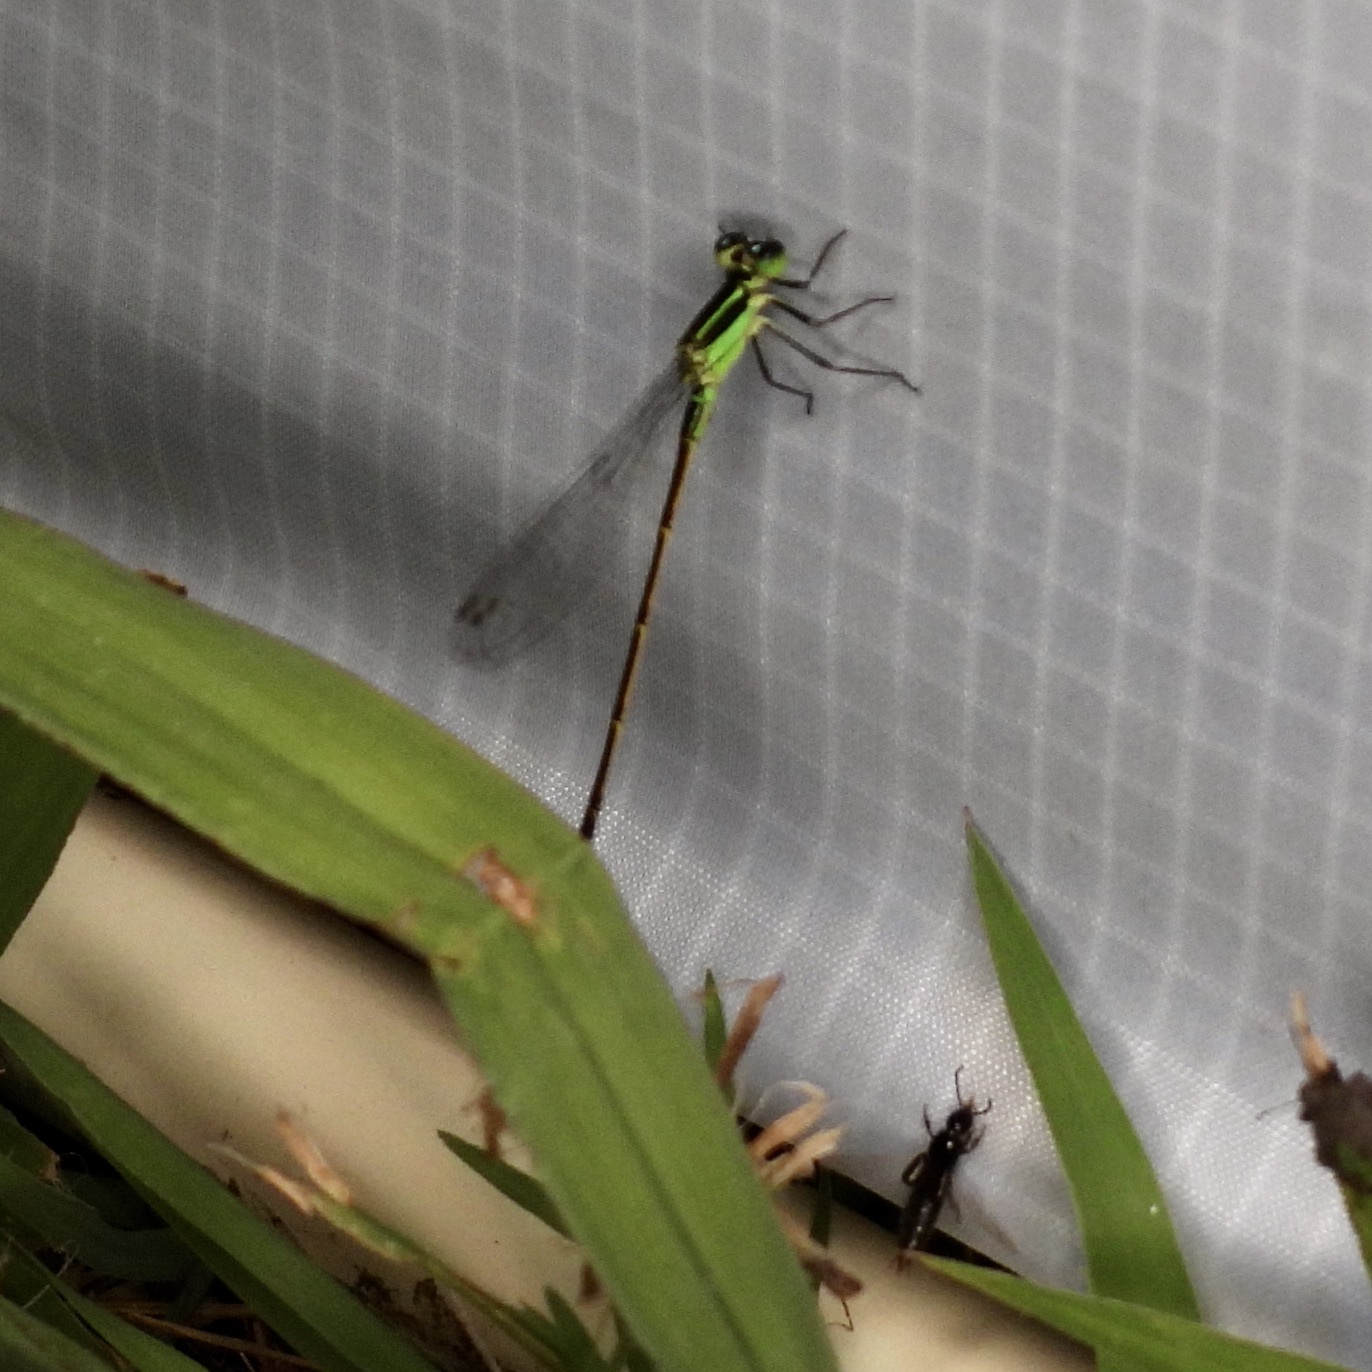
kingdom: Animalia
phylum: Arthropoda
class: Insecta
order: Odonata
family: Coenagrionidae
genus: Ischnura
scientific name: Ischnura ramburii
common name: Rambur's forktail
